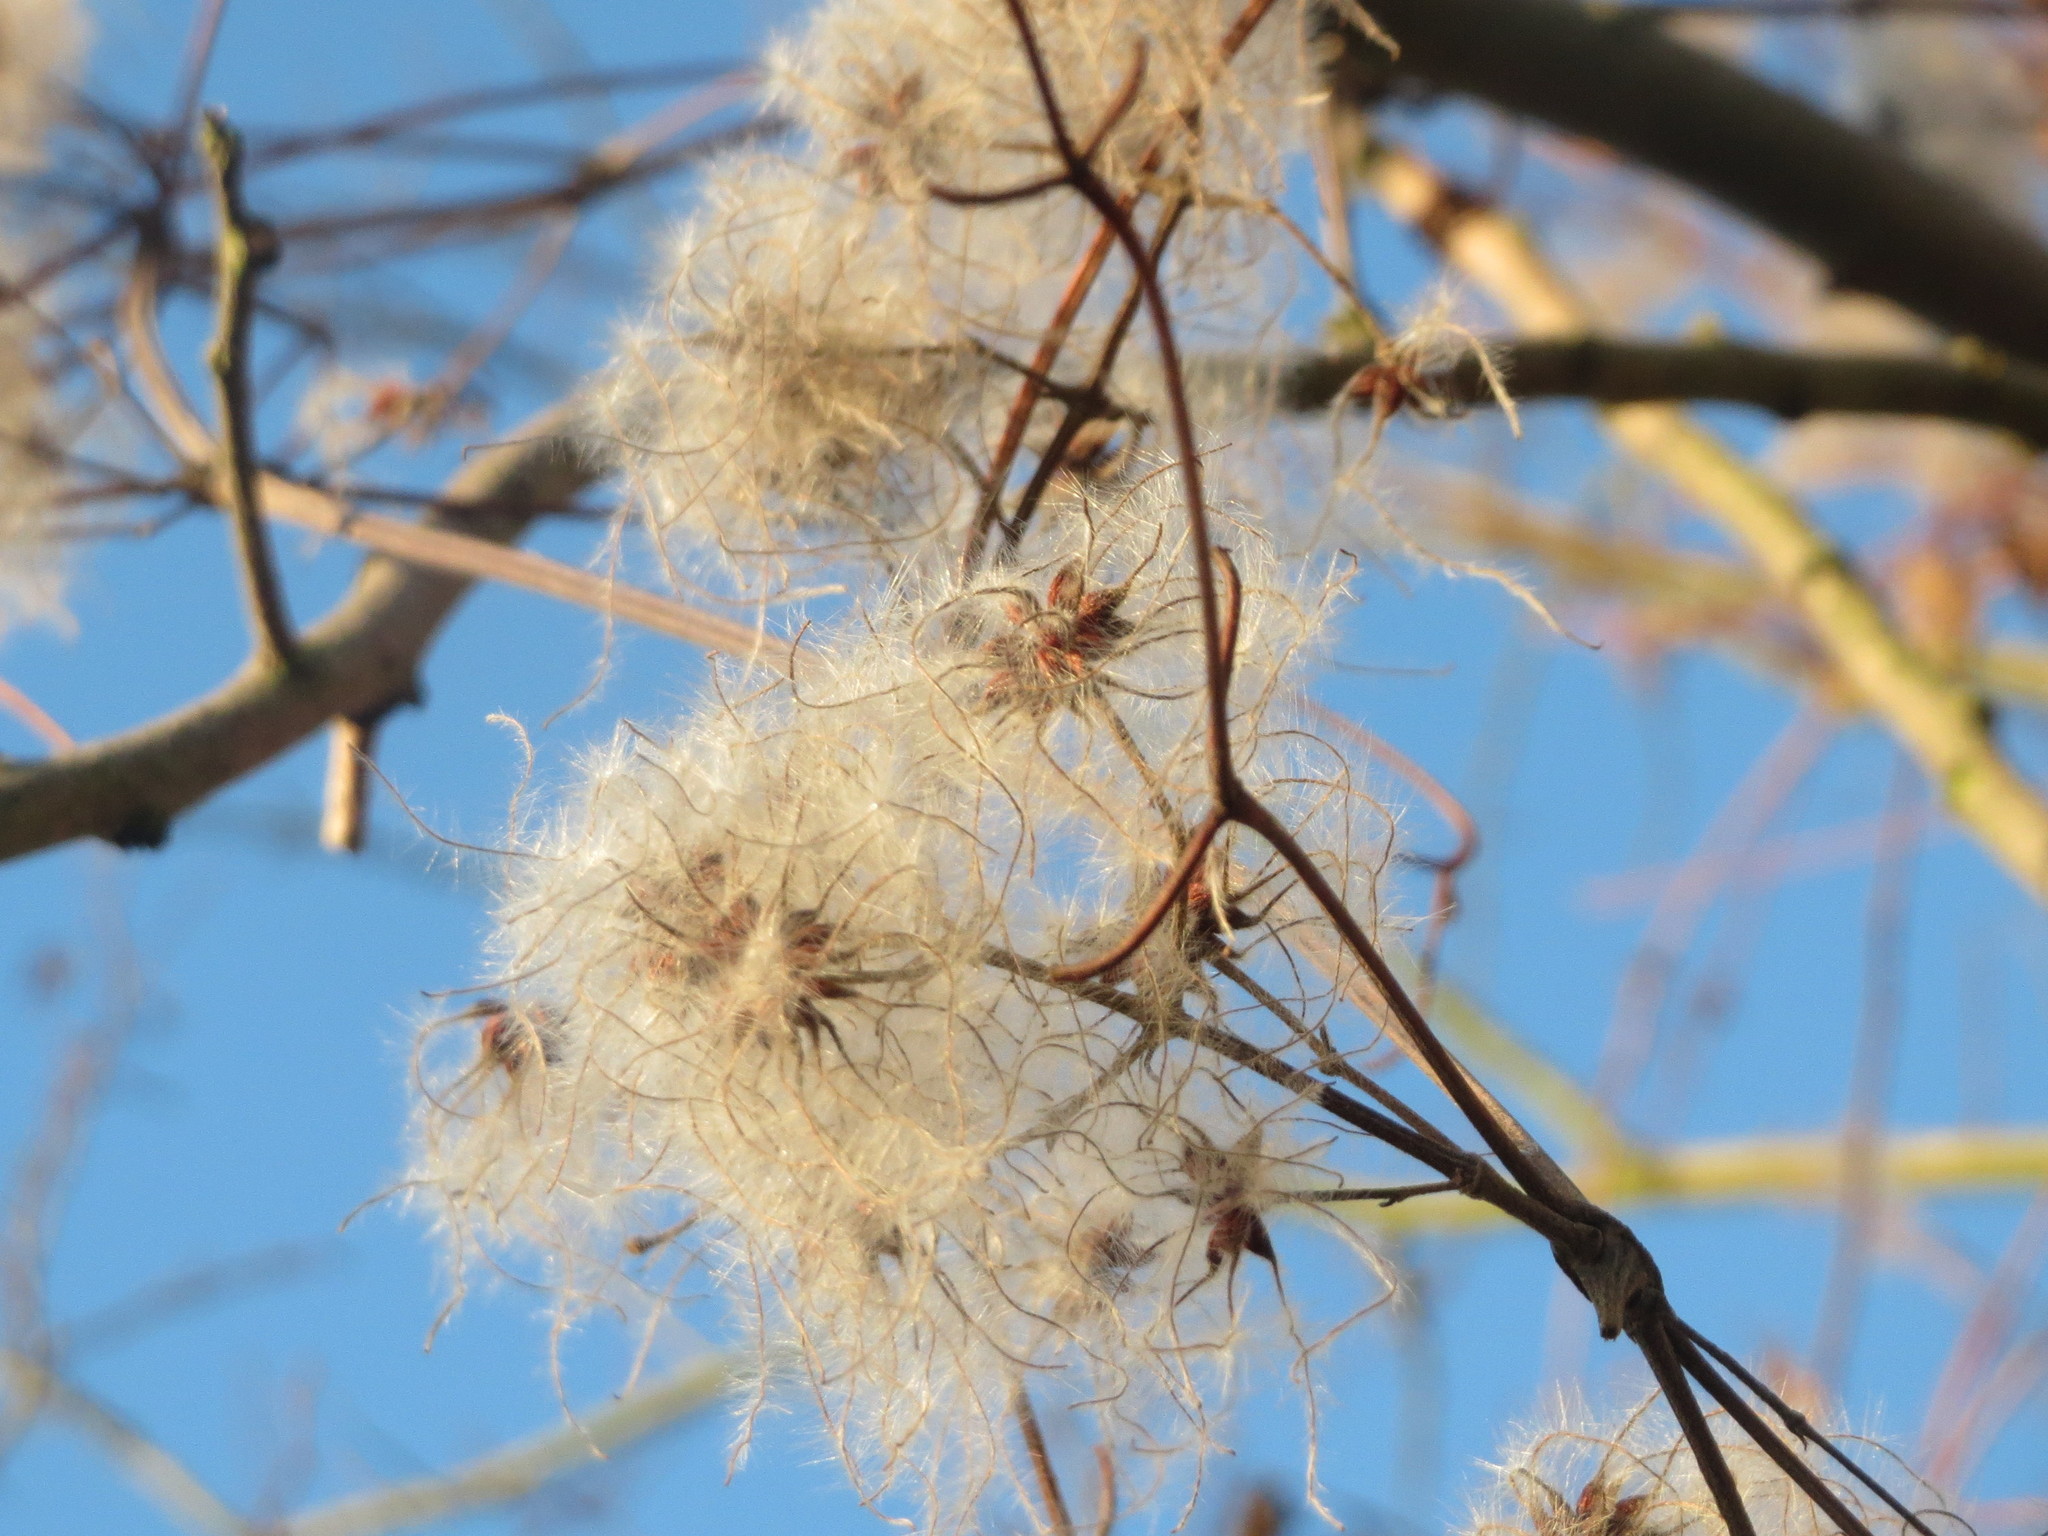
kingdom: Plantae
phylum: Tracheophyta
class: Magnoliopsida
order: Ranunculales
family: Ranunculaceae
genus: Clematis
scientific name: Clematis vitalba
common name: Evergreen clematis
